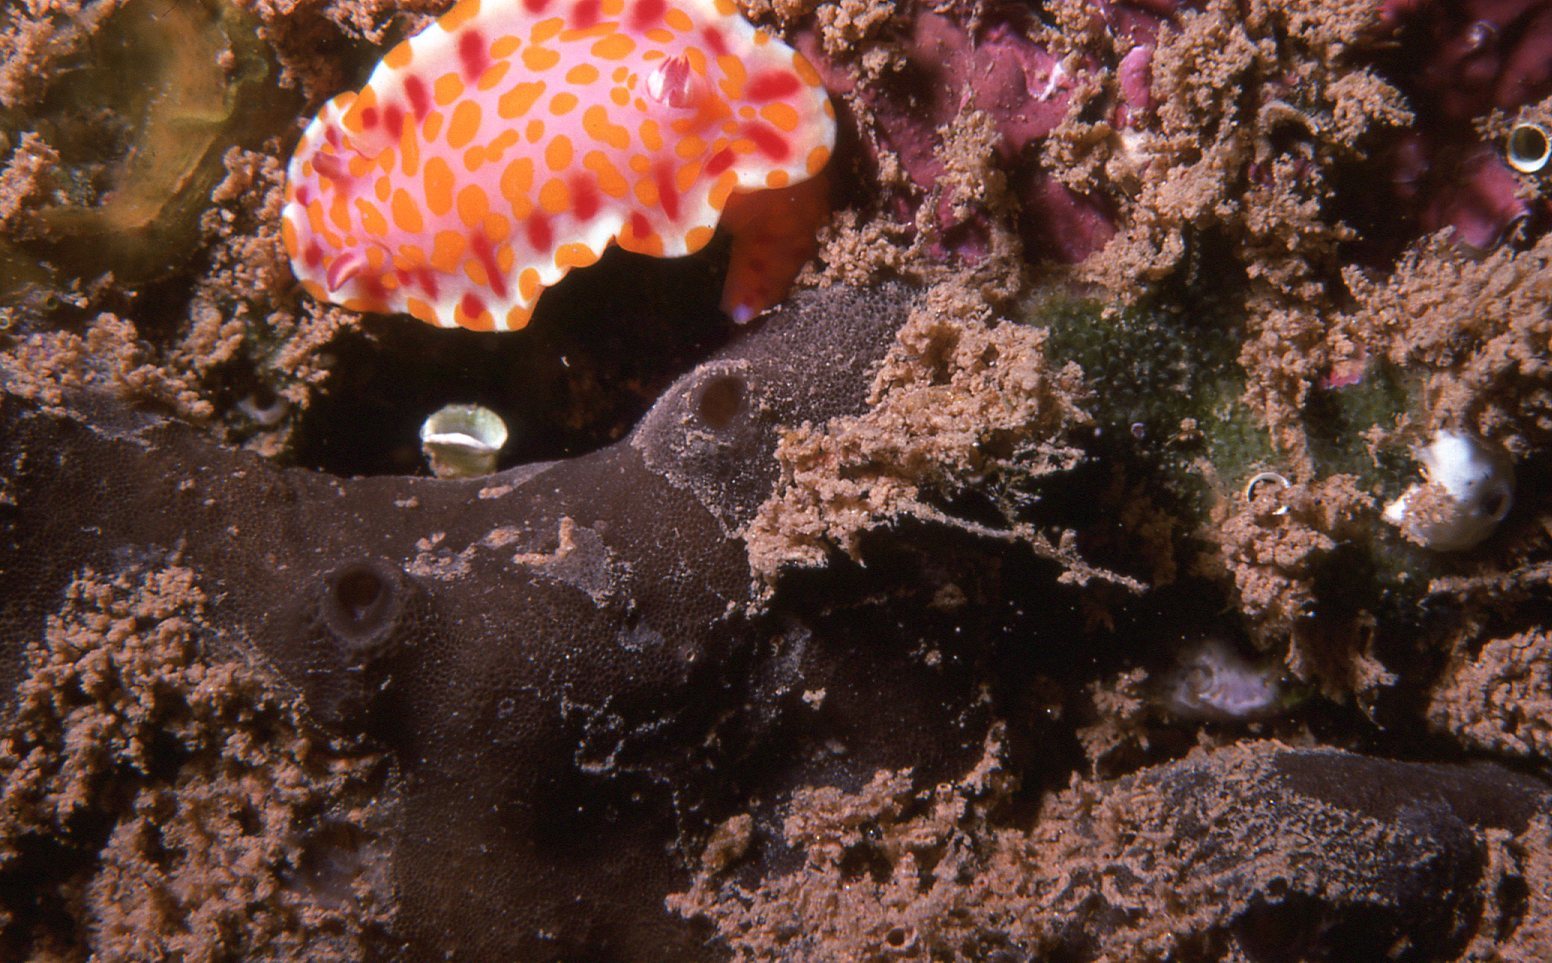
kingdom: Animalia
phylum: Mollusca
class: Gastropoda
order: Nudibranchia
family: Chromodorididae
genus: Ceratosoma
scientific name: Ceratosoma amoenum
